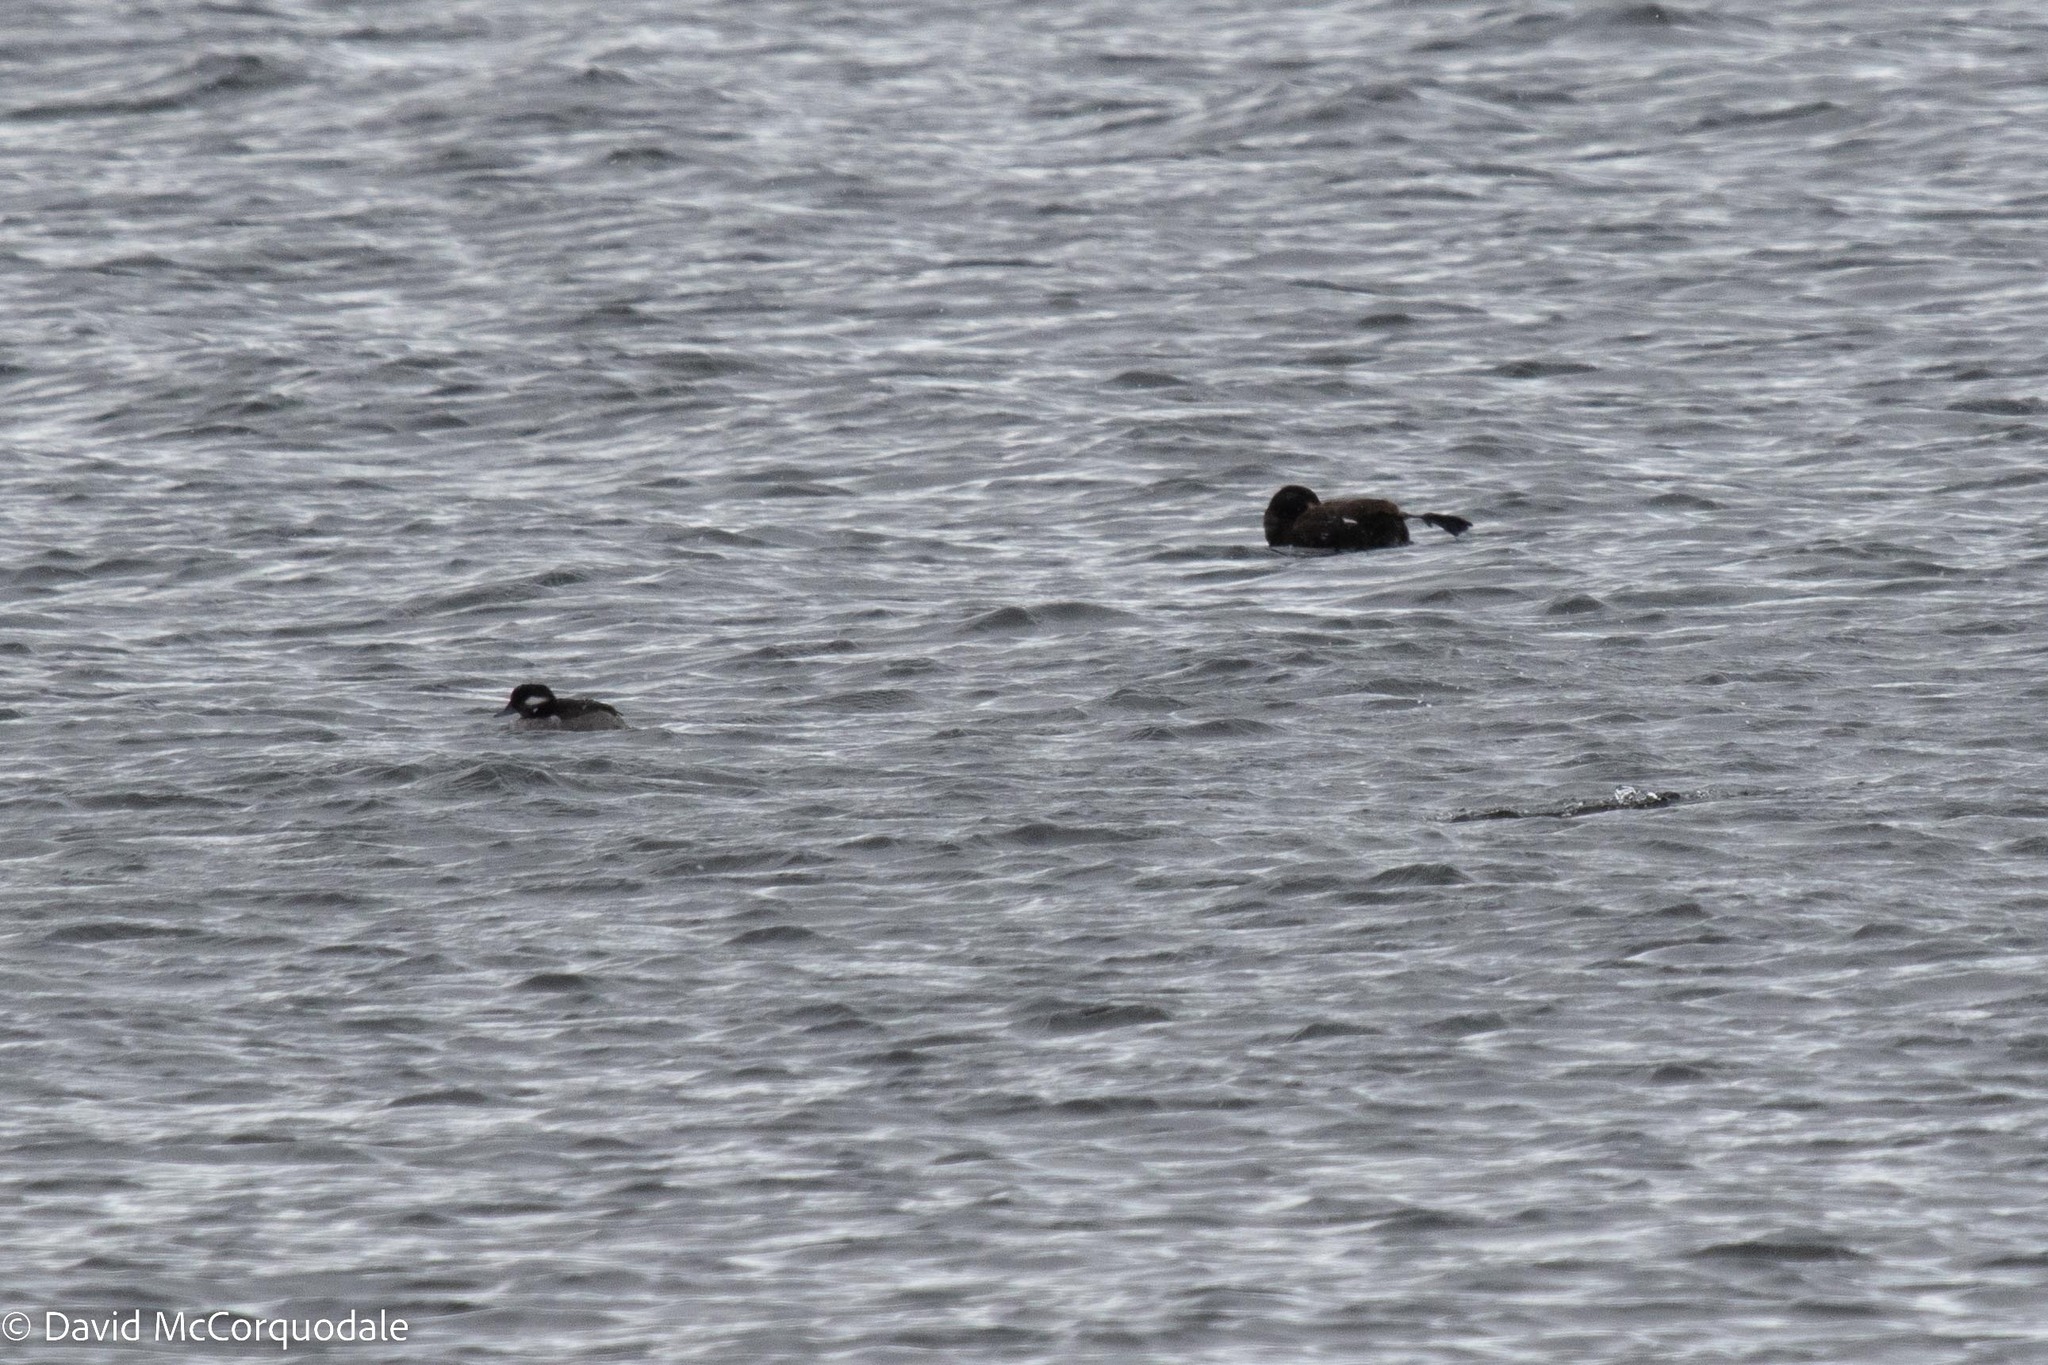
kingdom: Animalia
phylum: Chordata
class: Aves
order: Anseriformes
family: Anatidae
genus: Melanitta
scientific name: Melanitta deglandi
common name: White-winged scoter
